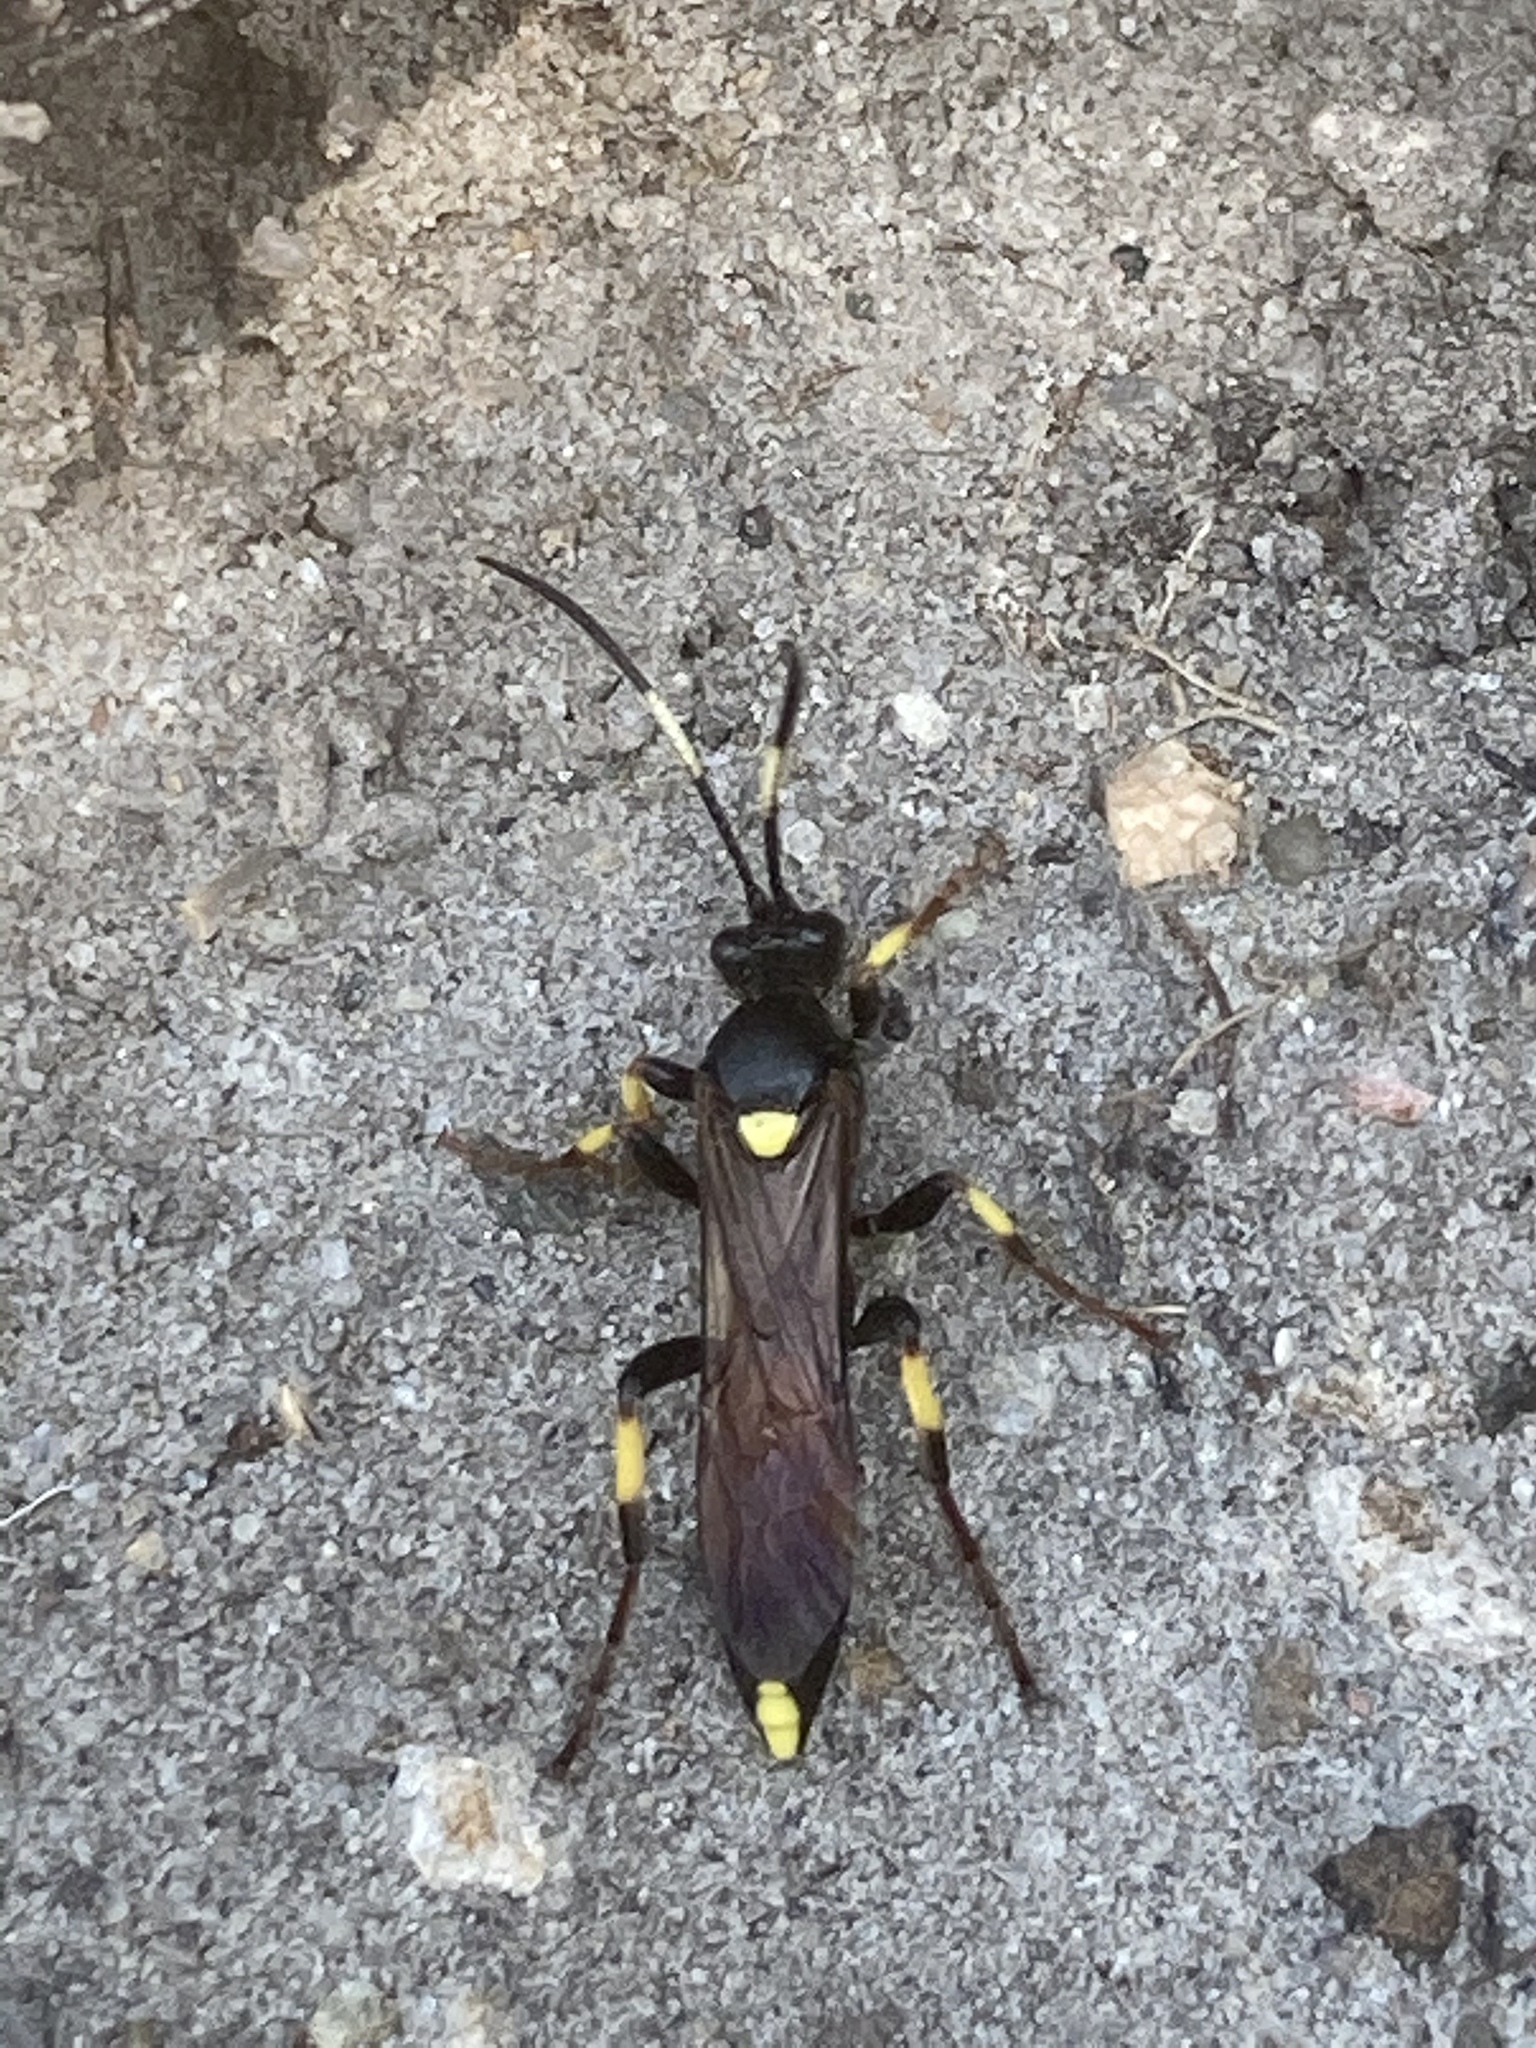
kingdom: Animalia
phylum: Arthropoda
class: Insecta
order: Hymenoptera
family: Ichneumonidae
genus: Ichneumon
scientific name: Ichneumon stramentor
